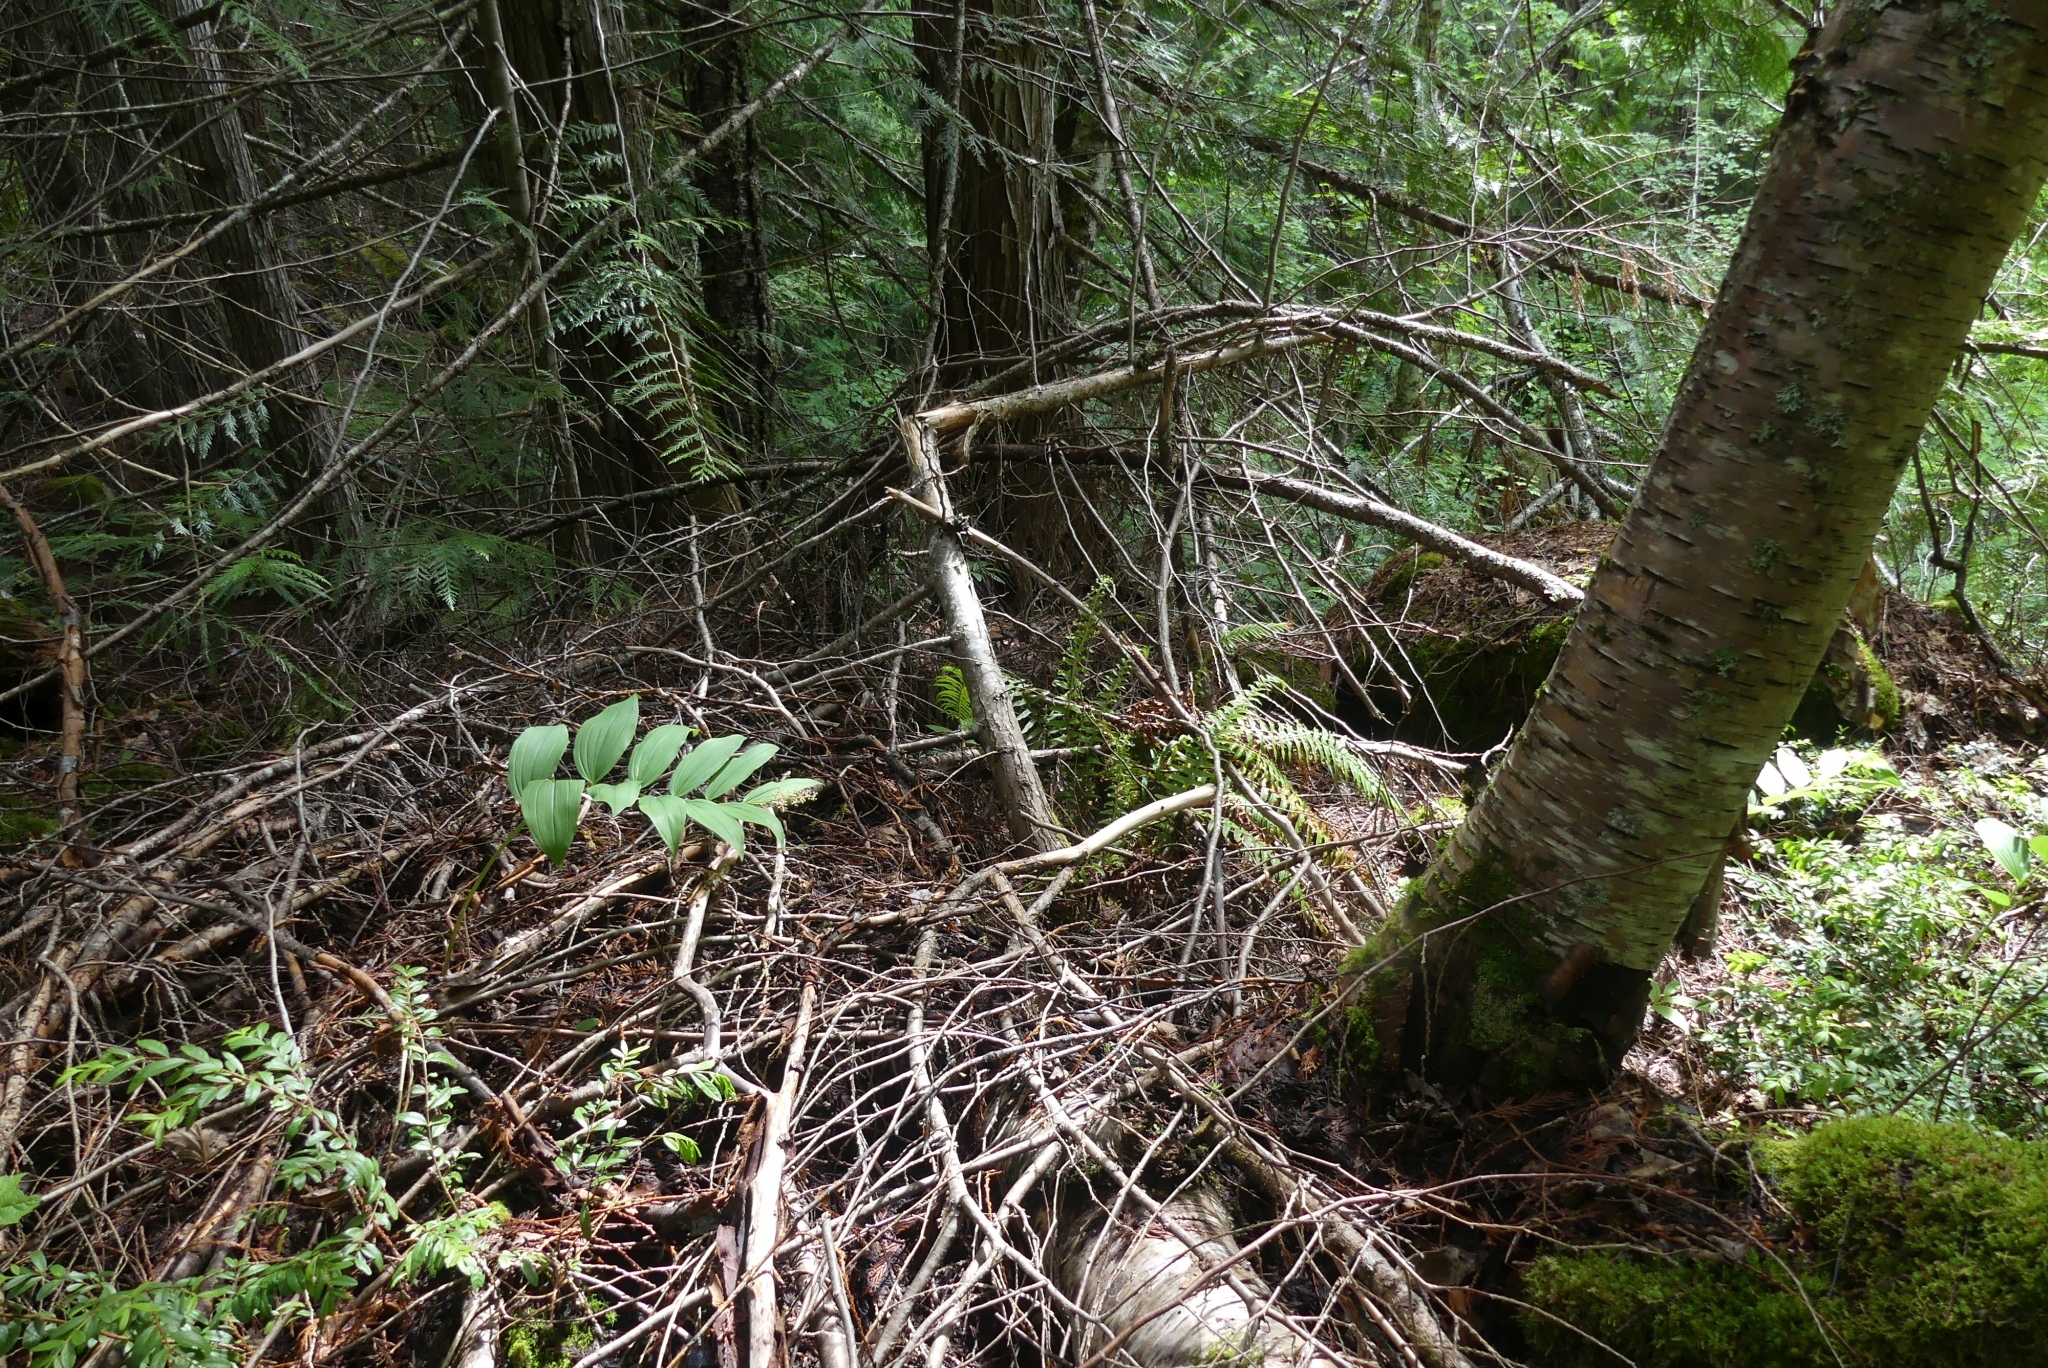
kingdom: Plantae
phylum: Tracheophyta
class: Polypodiopsida
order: Polypodiales
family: Dryopteridaceae
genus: Polystichum
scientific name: Polystichum munitum
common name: Western sword-fern
